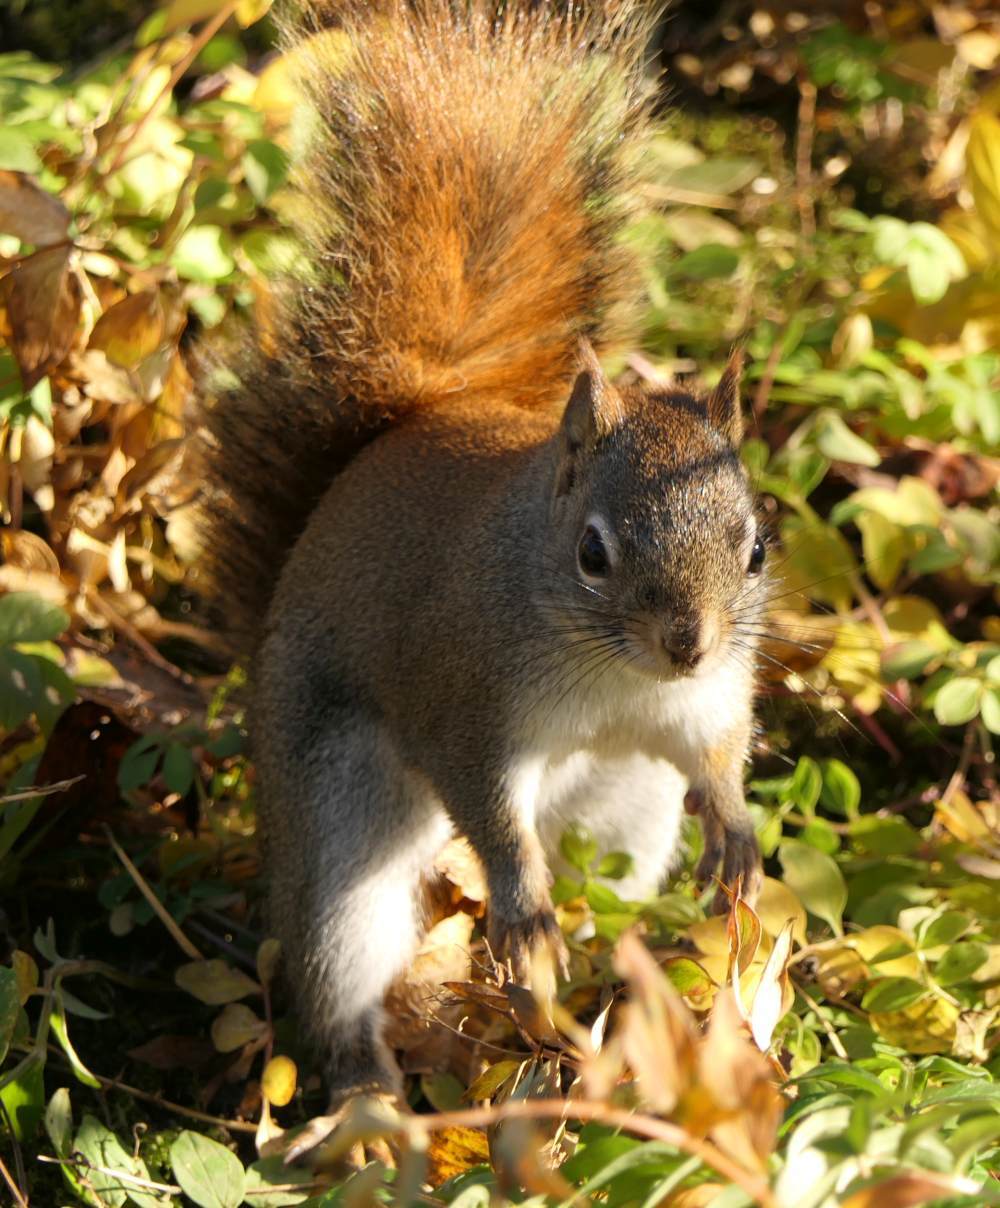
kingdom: Animalia
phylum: Chordata
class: Mammalia
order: Rodentia
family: Sciuridae
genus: Tamiasciurus
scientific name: Tamiasciurus hudsonicus
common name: Red squirrel
